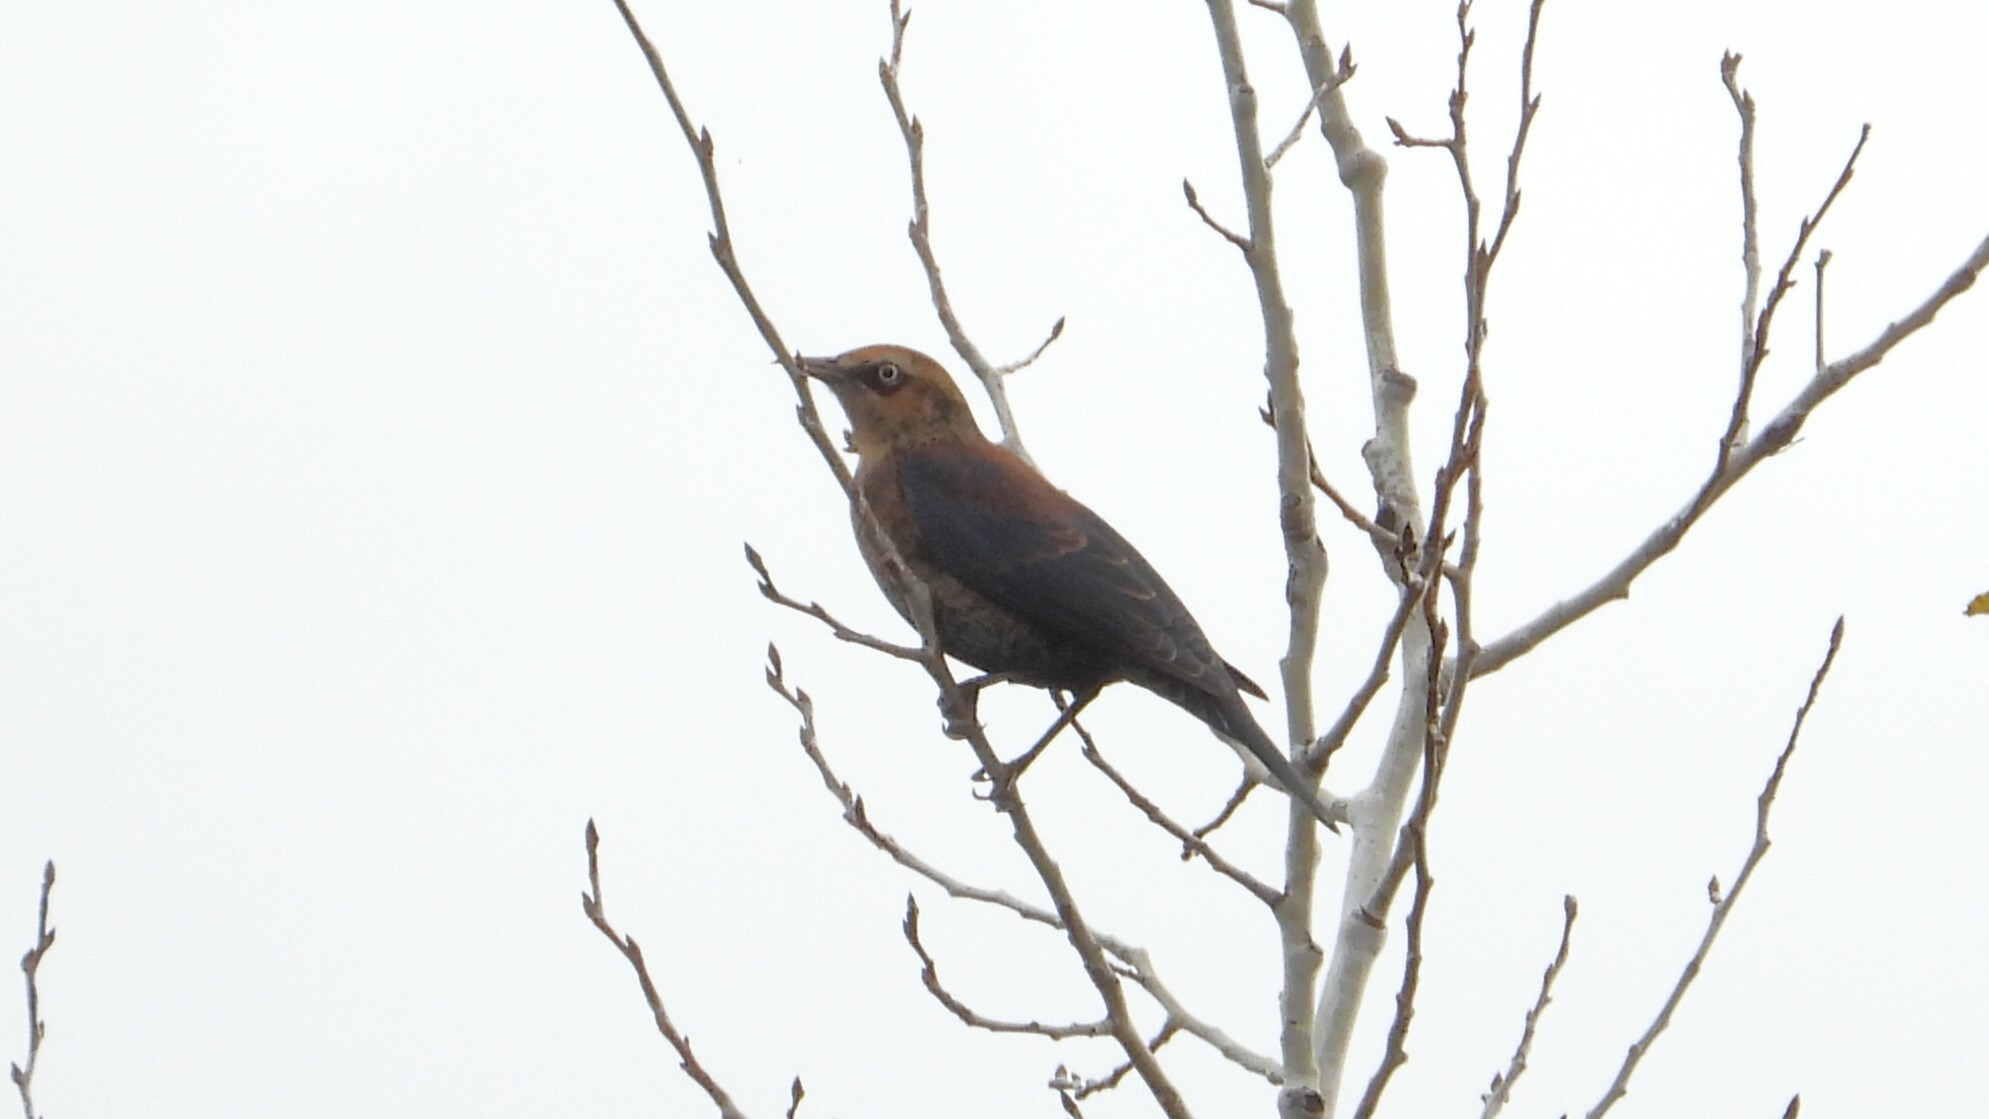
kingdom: Animalia
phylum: Chordata
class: Aves
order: Passeriformes
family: Icteridae
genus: Euphagus
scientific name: Euphagus carolinus
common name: Rusty blackbird
